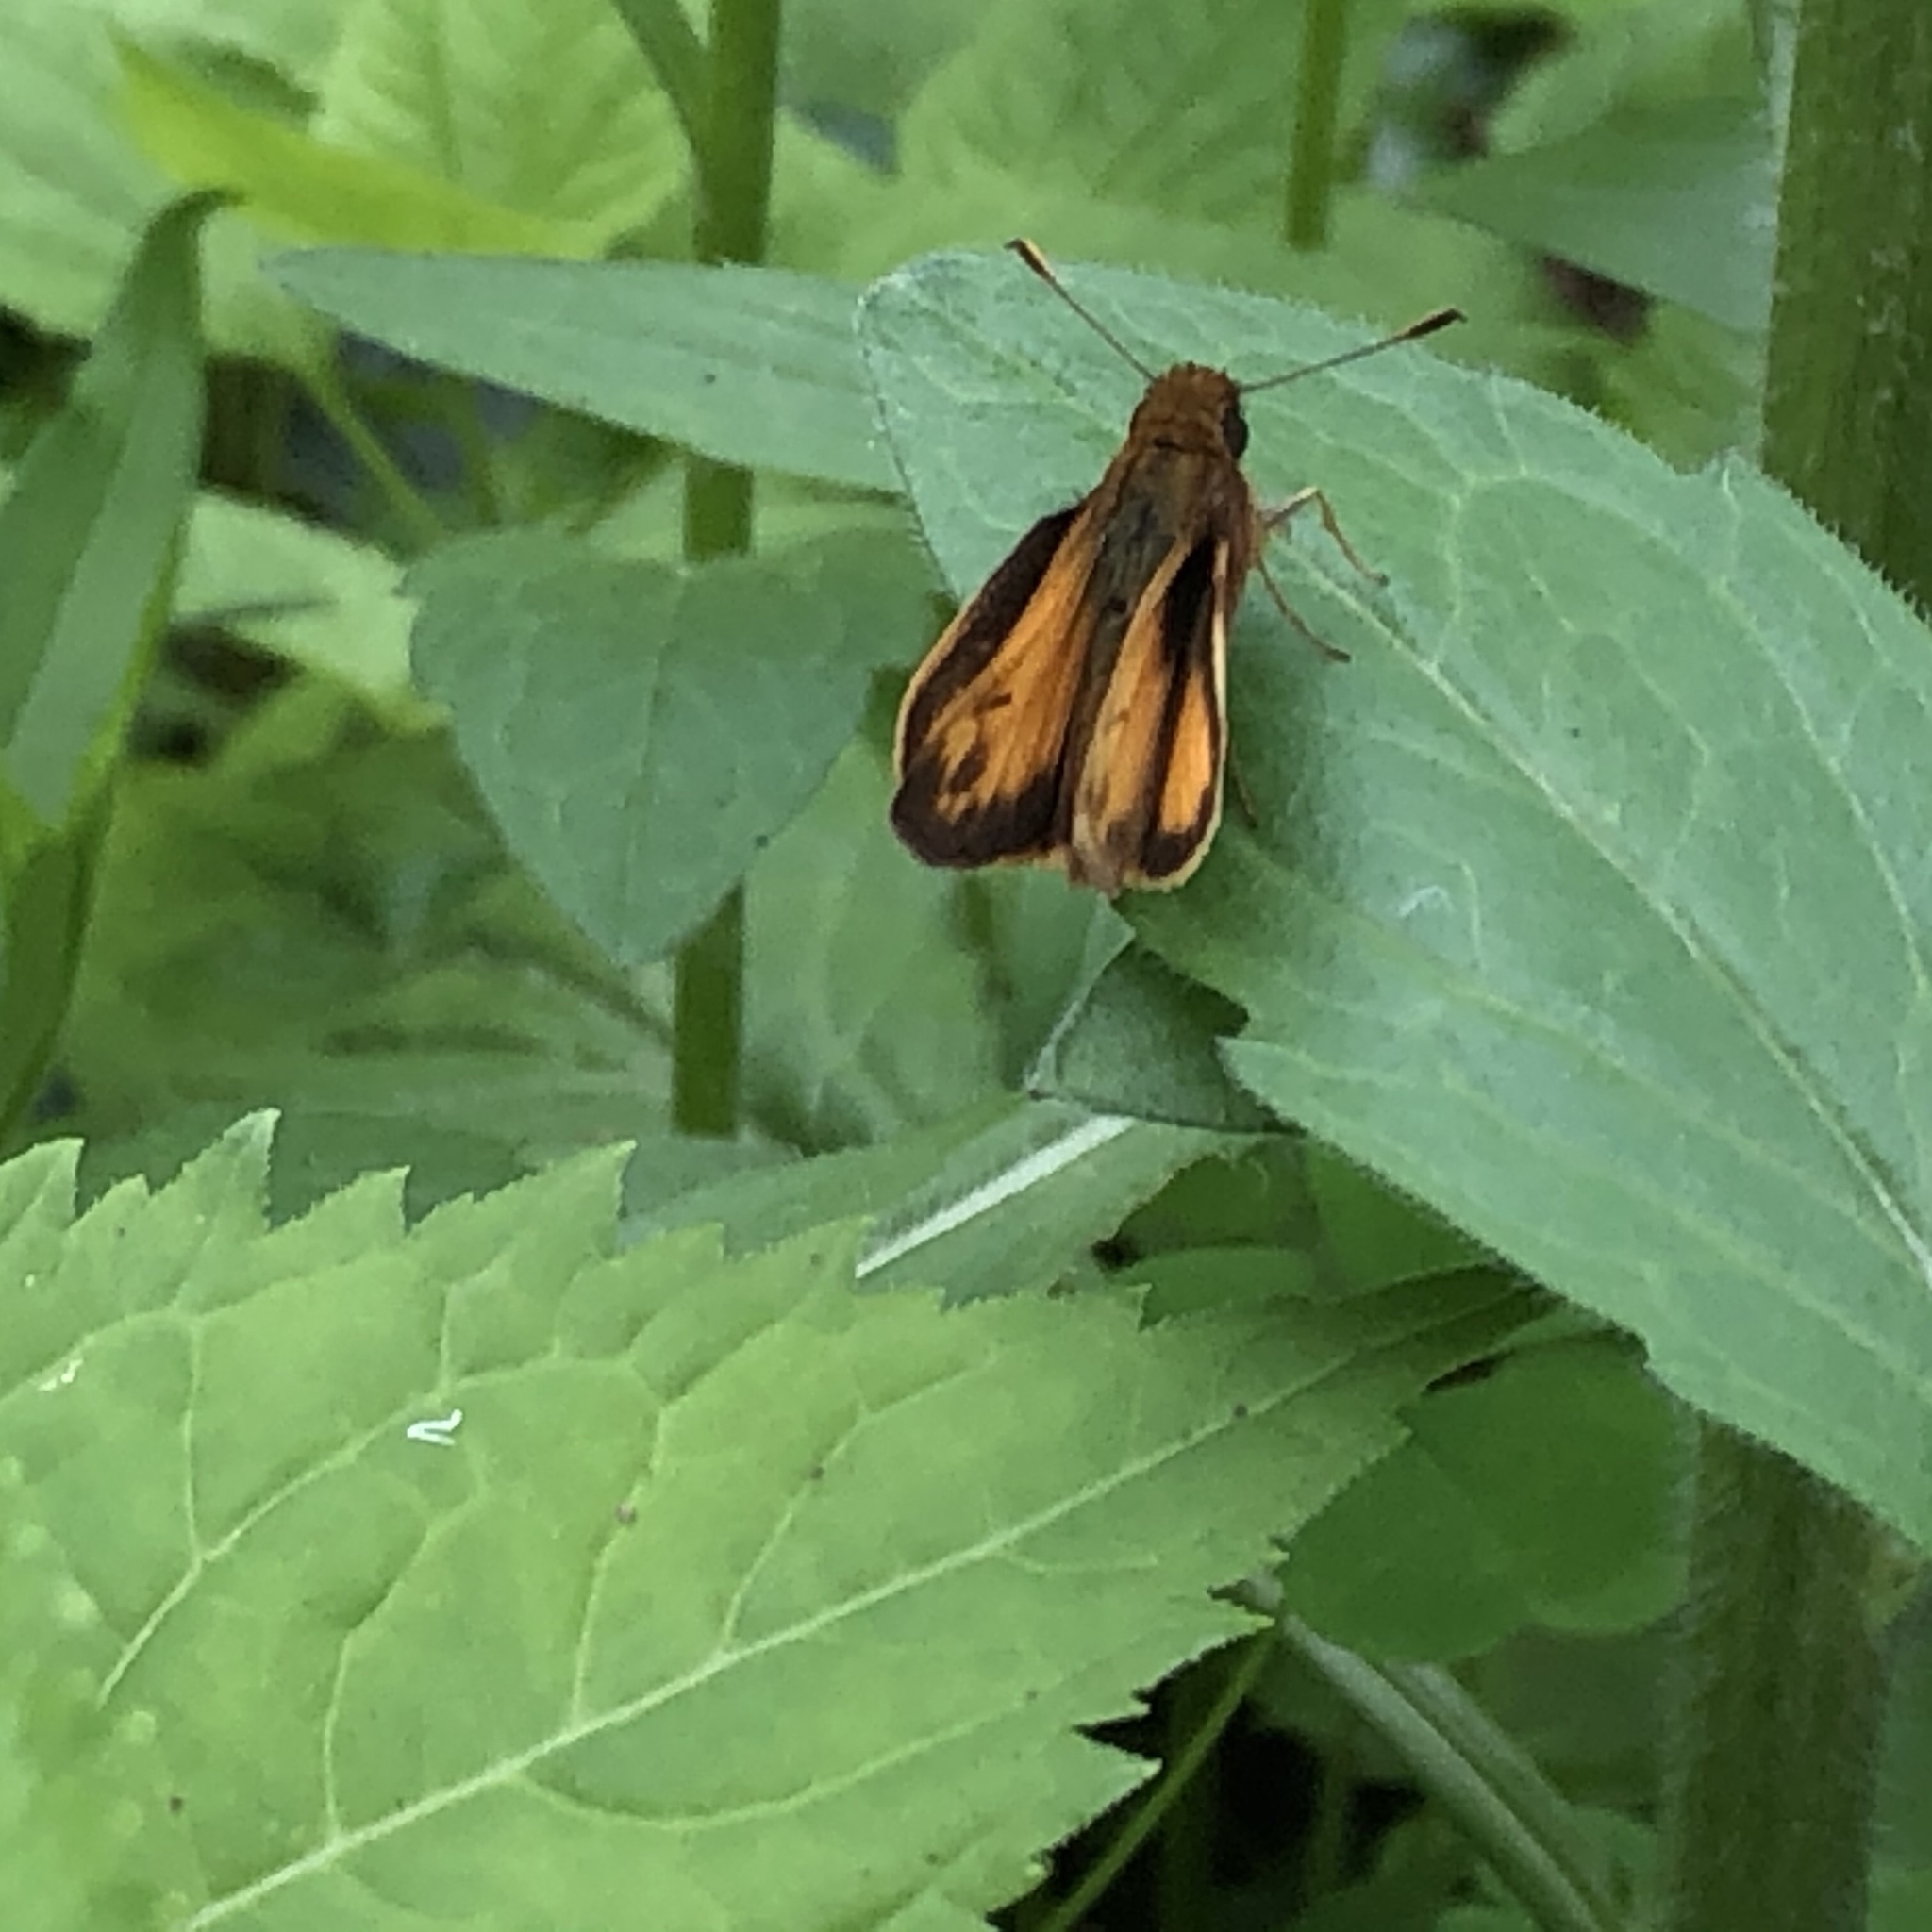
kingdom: Animalia
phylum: Arthropoda
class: Insecta
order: Lepidoptera
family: Hesperiidae
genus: Lon
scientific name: Lon zabulon
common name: Zabulon skipper
